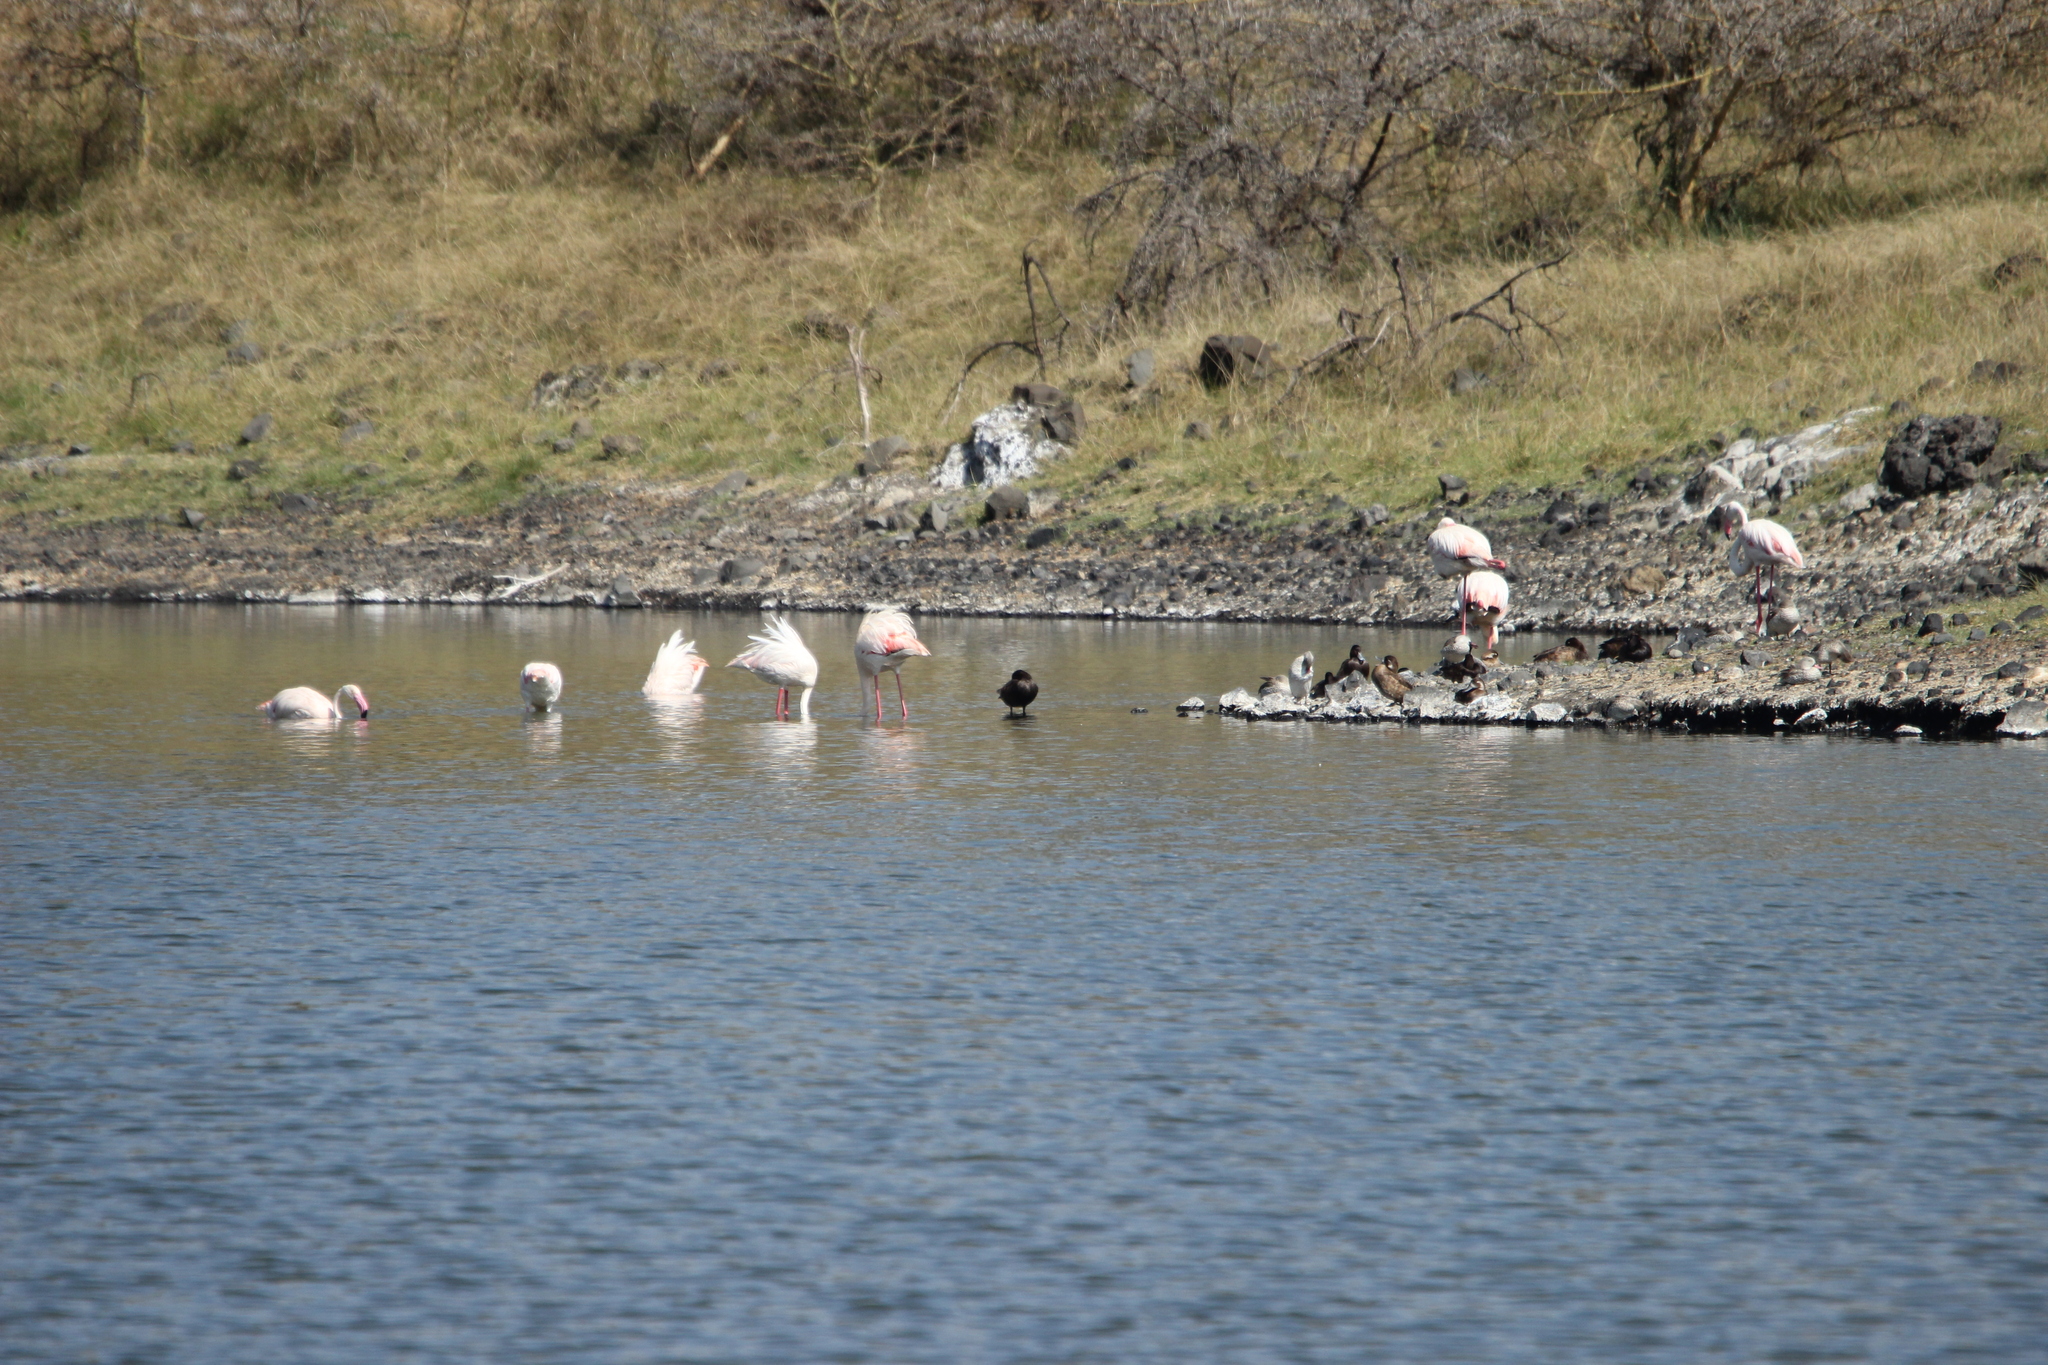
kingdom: Animalia
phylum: Chordata
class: Aves
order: Anseriformes
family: Anatidae
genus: Netta
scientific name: Netta erythrophthalma
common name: Southern pochard
